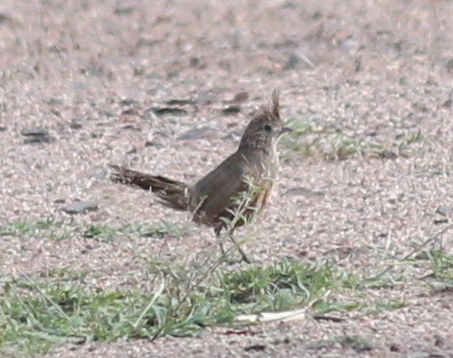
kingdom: Animalia
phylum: Chordata
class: Aves
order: Passeriformes
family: Rhinocryptidae
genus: Rhinocrypta
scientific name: Rhinocrypta lanceolata
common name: Crested gallito
